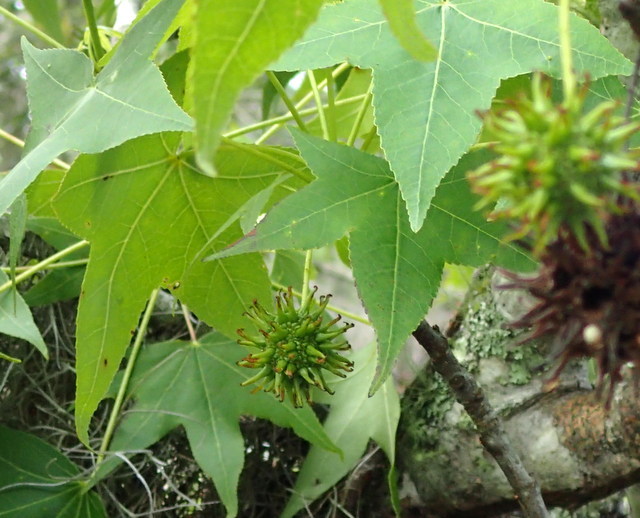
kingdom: Plantae
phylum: Tracheophyta
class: Magnoliopsida
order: Saxifragales
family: Altingiaceae
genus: Liquidambar
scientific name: Liquidambar styraciflua
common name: Sweet gum
